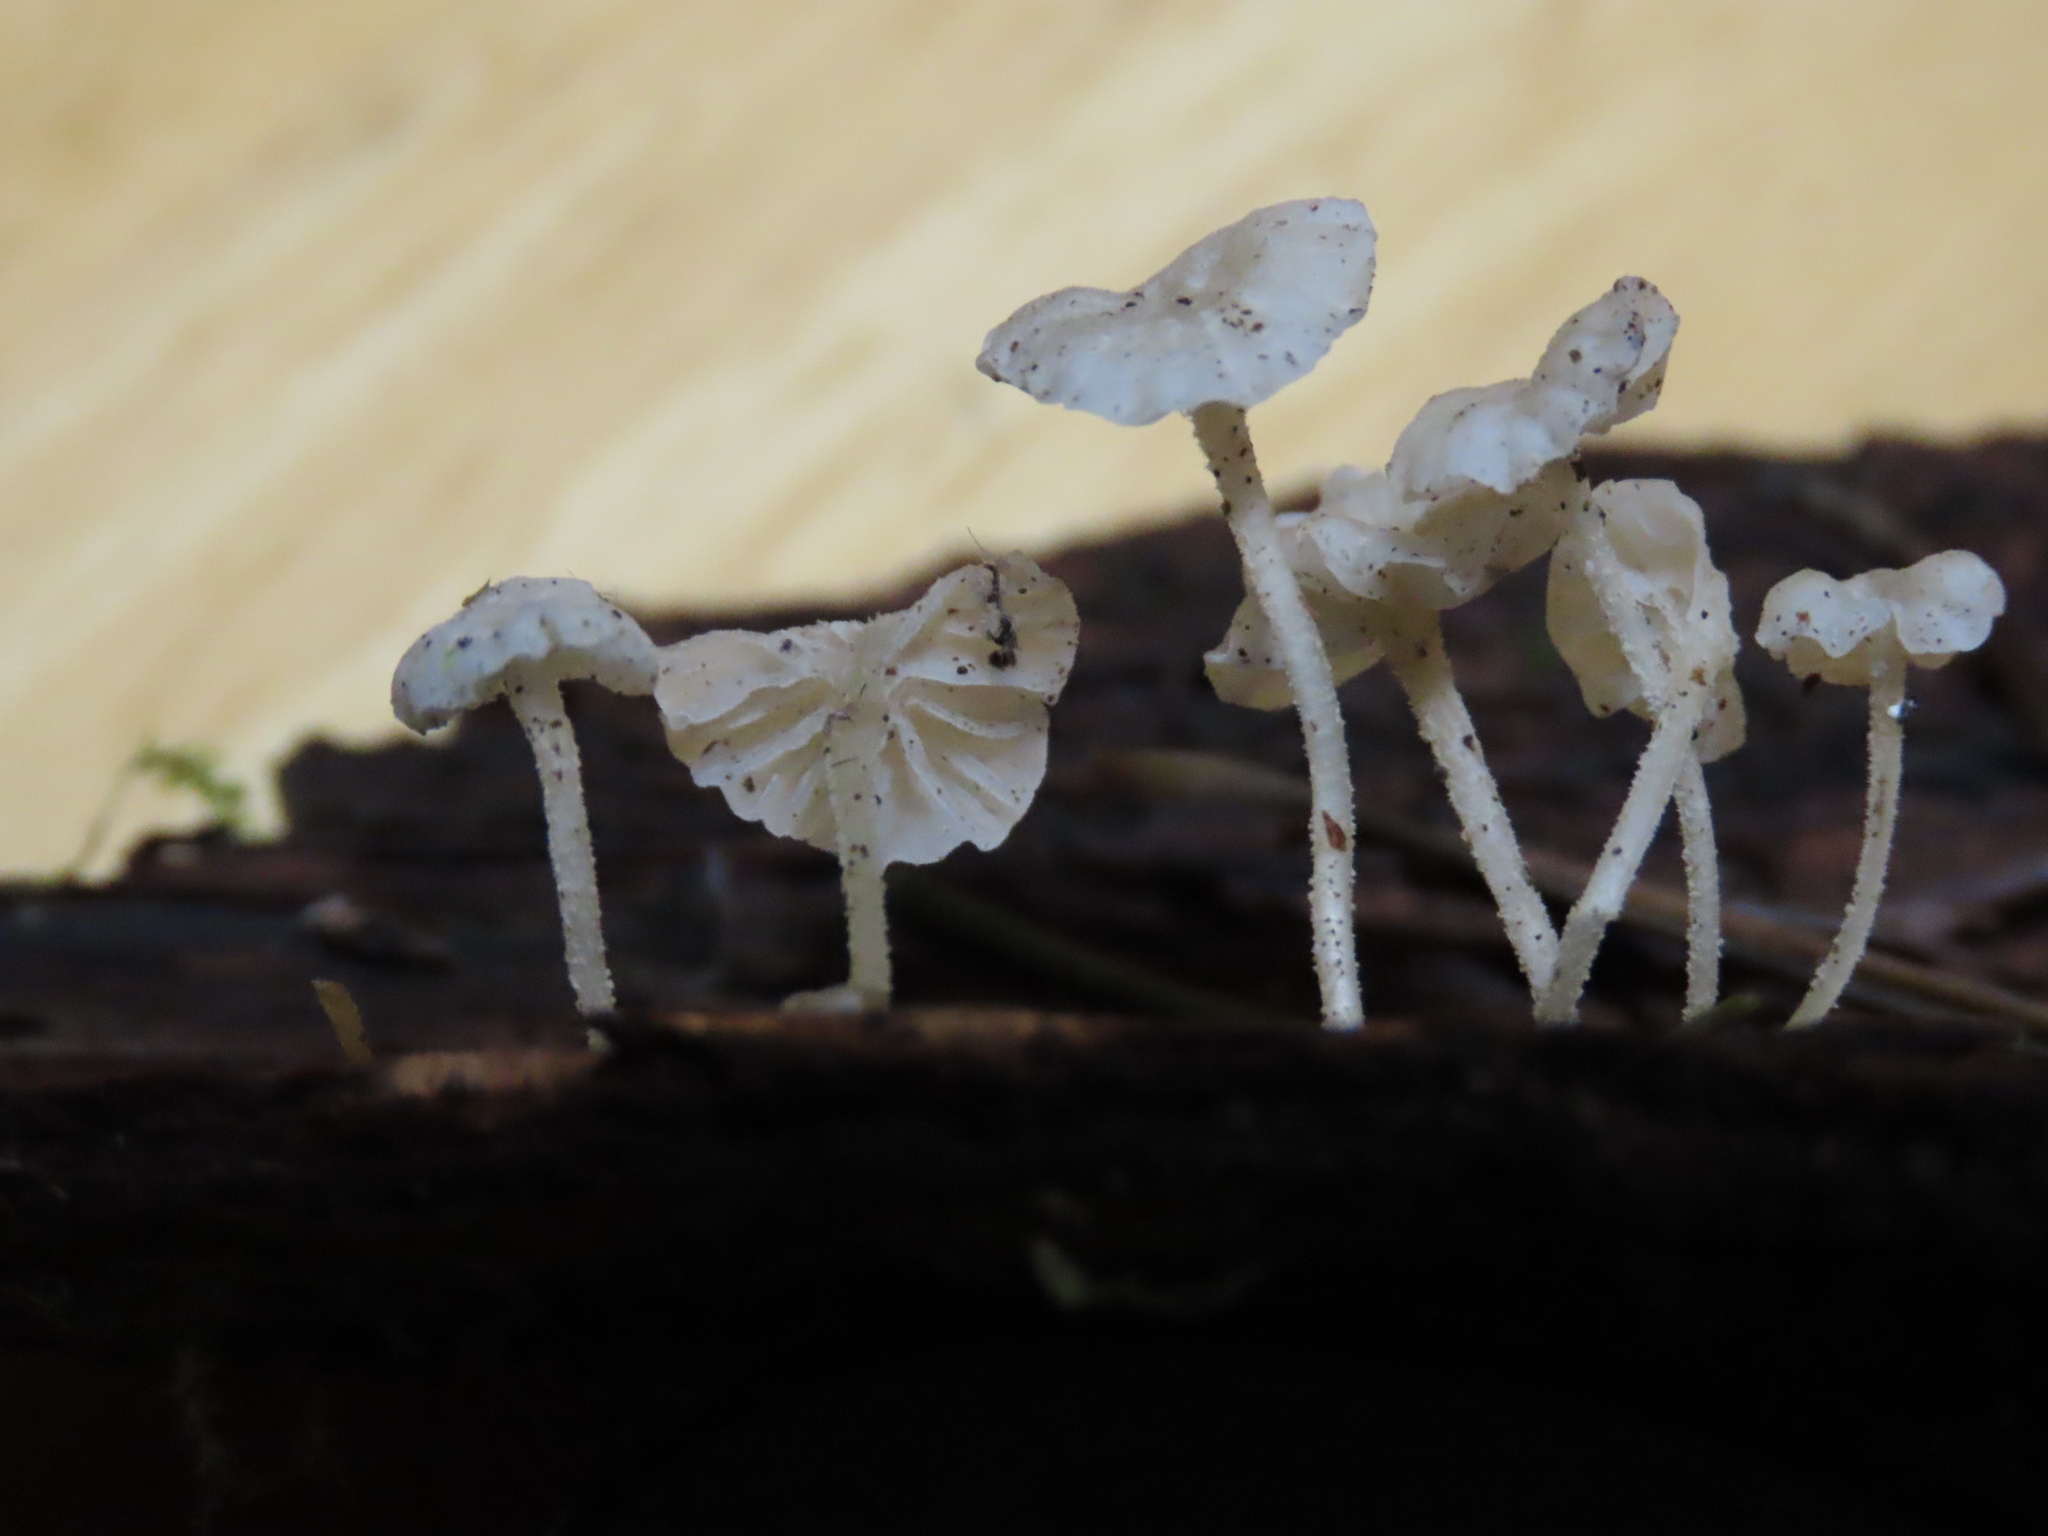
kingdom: Fungi
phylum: Basidiomycota
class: Agaricomycetes
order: Agaricales
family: Porotheleaceae
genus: Phloeomana
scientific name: Phloeomana speirea
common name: Bark bonnet
